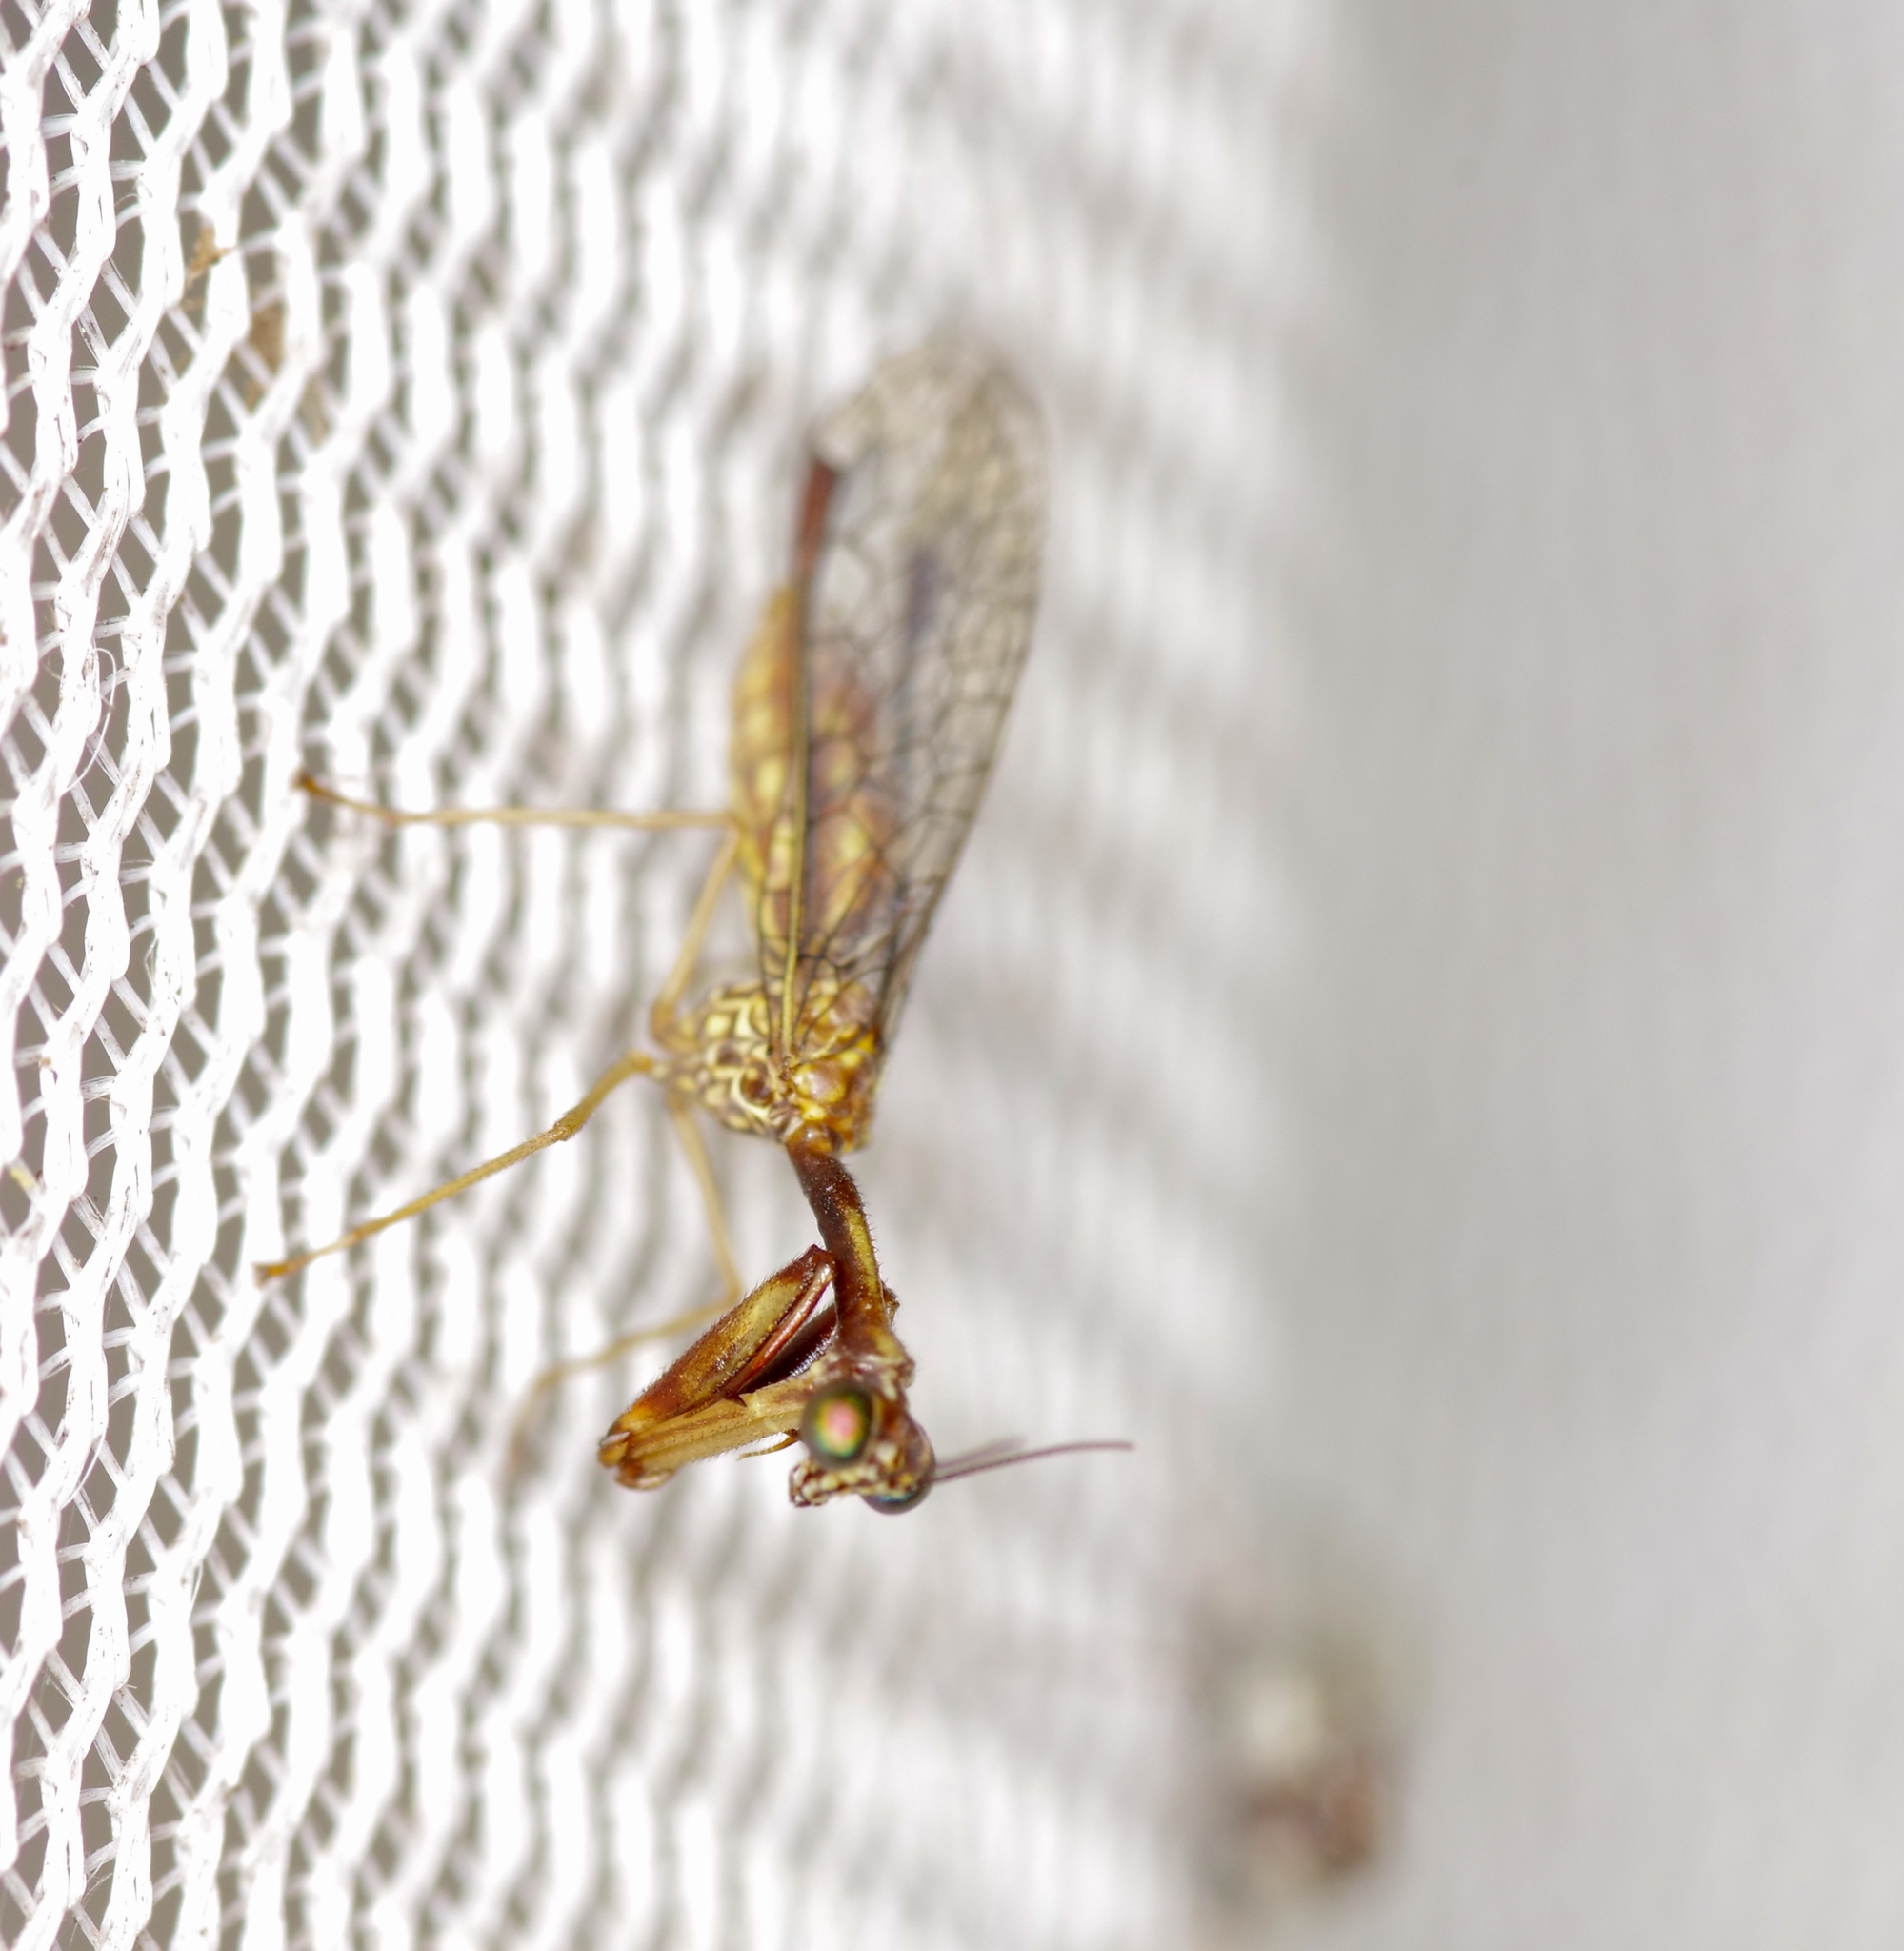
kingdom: Animalia
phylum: Arthropoda
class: Insecta
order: Neuroptera
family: Mantispidae
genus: Leptomantispa
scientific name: Leptomantispa pulchella
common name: Stevens's mantidfly
